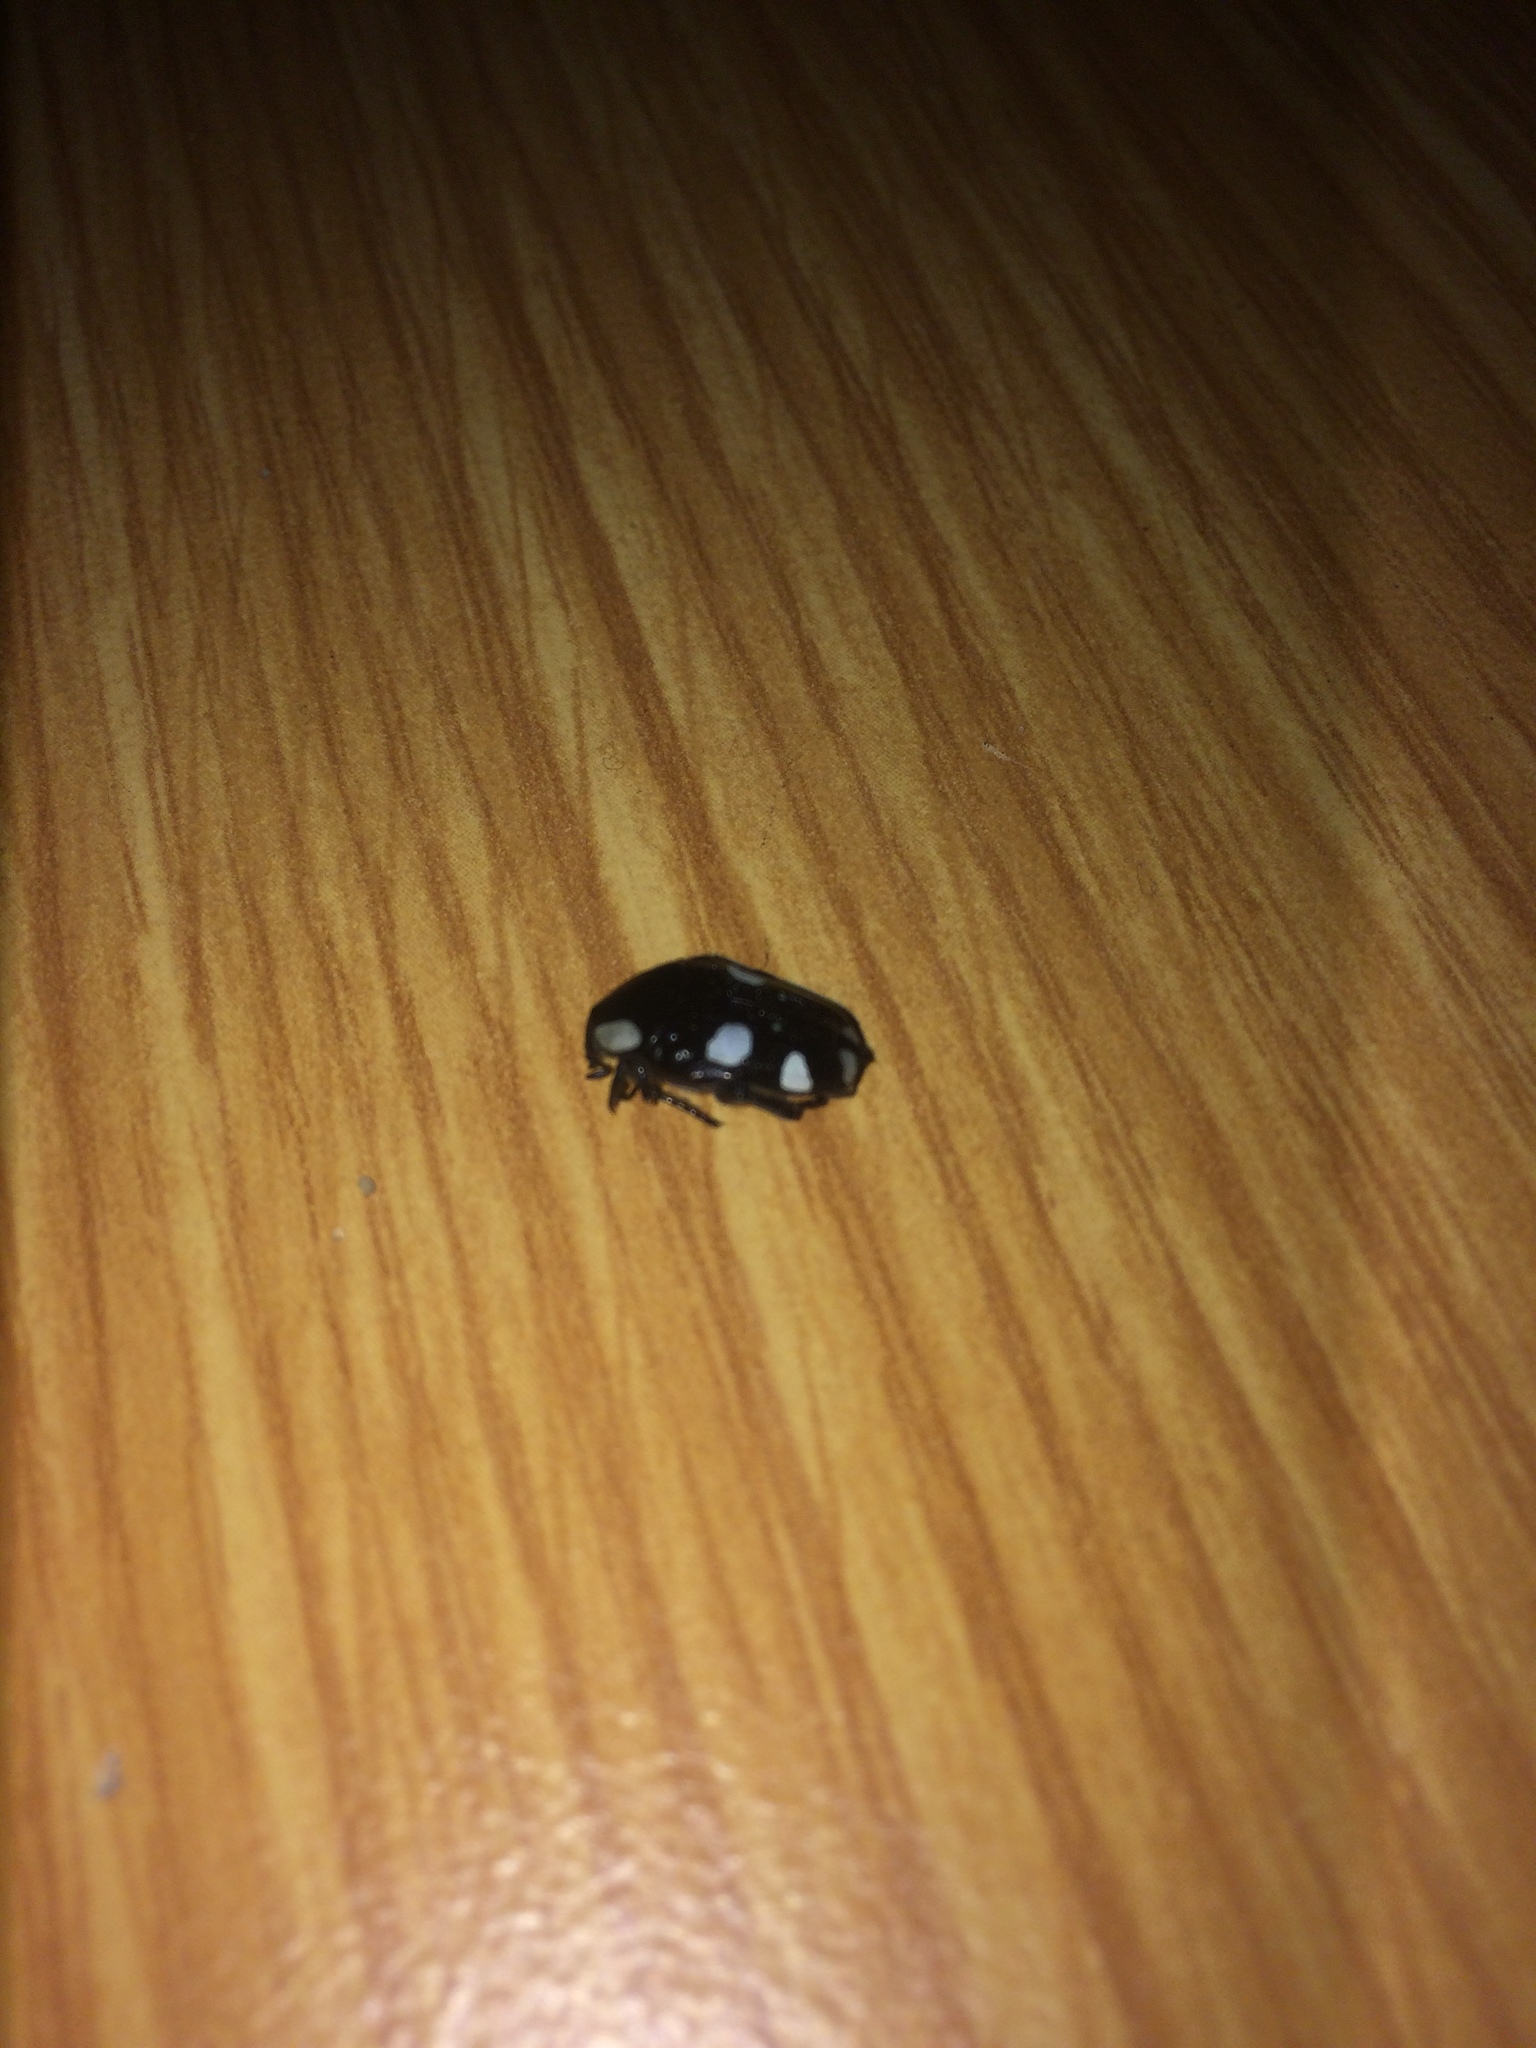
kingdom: Animalia
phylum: Arthropoda
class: Insecta
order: Coleoptera
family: Scarabaeidae
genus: Mausoleopsis
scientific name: Mausoleopsis amabilis
